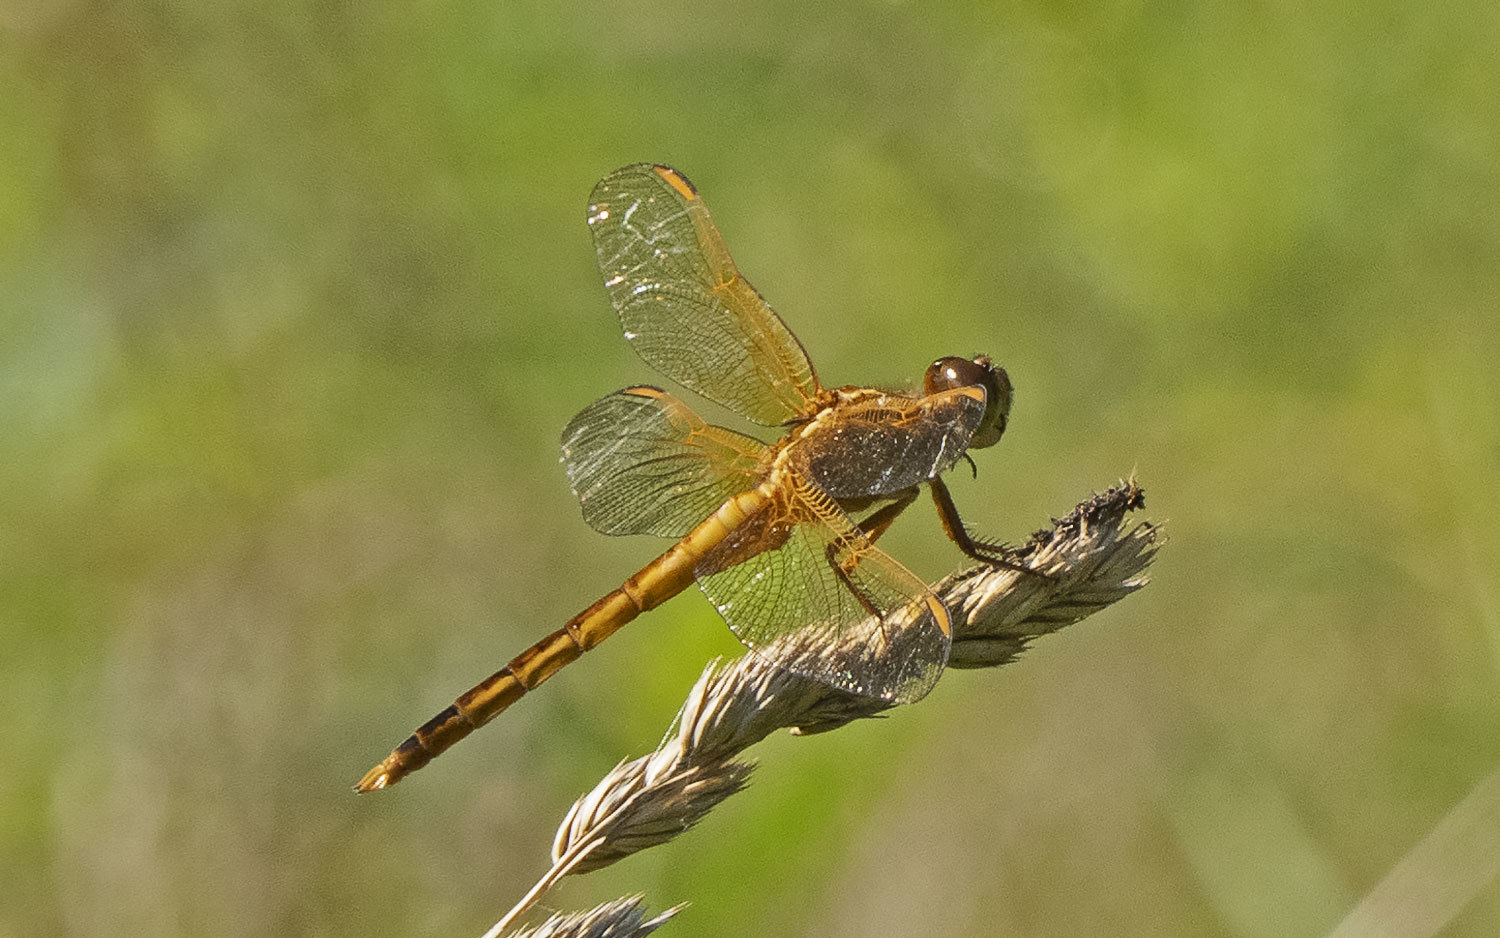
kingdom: Animalia
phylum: Arthropoda
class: Insecta
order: Odonata
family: Libellulidae
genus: Libellula
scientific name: Libellula needhami
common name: Needham's skimmer
